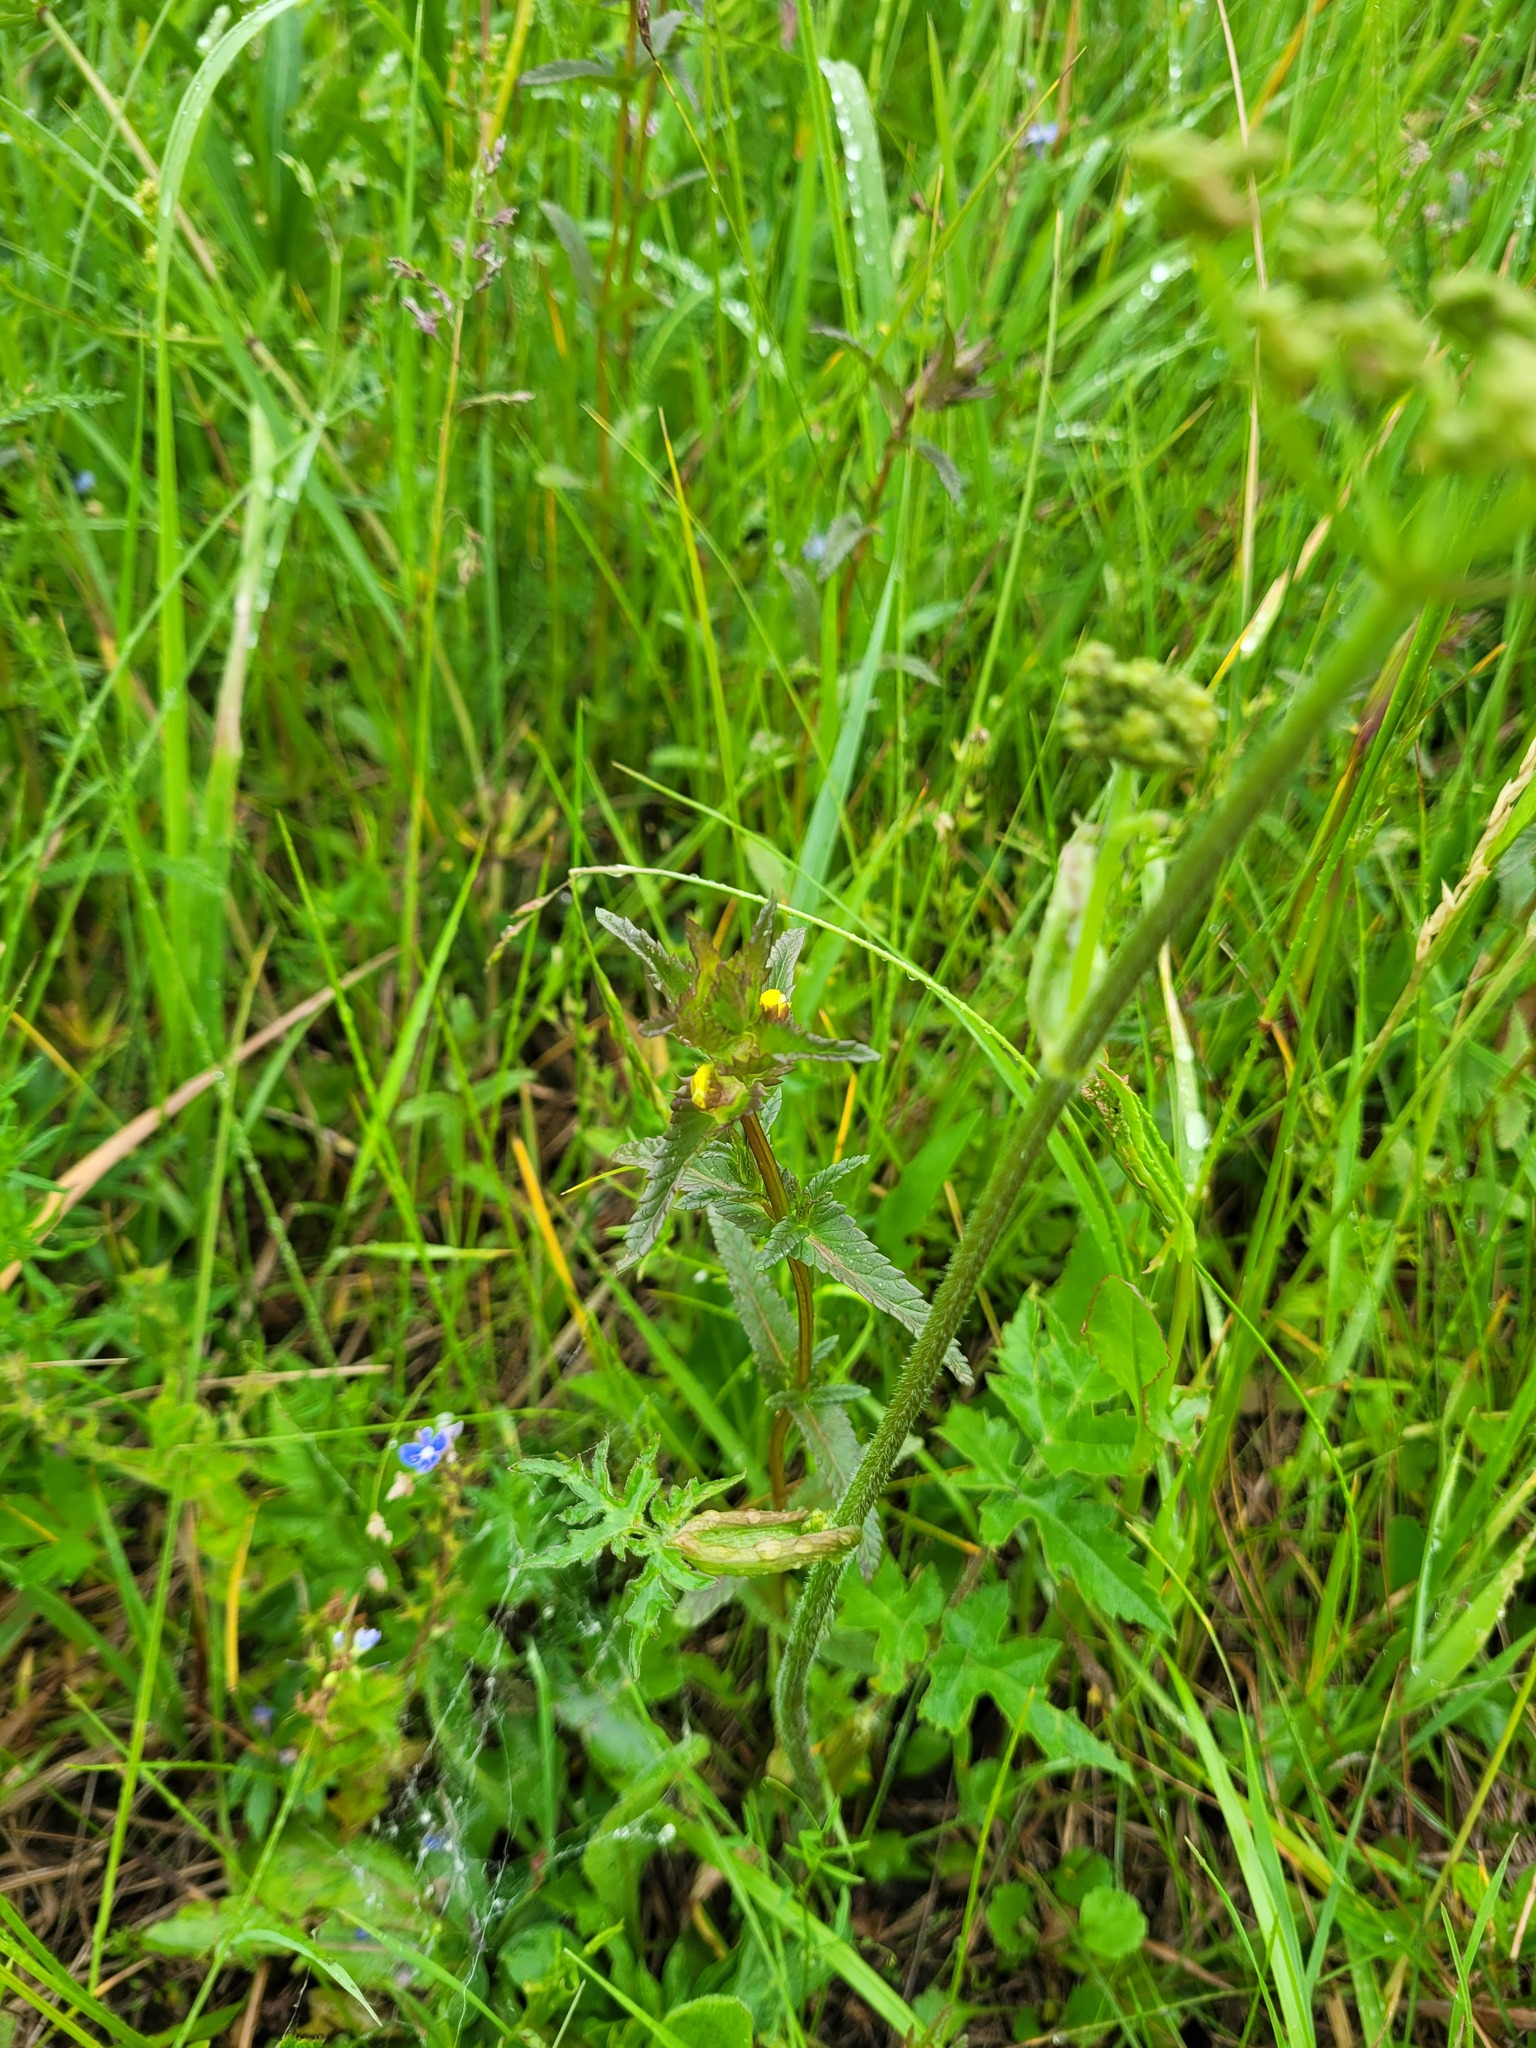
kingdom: Plantae
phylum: Tracheophyta
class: Magnoliopsida
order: Lamiales
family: Orobanchaceae
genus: Rhinanthus
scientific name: Rhinanthus minor
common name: Yellow-rattle
